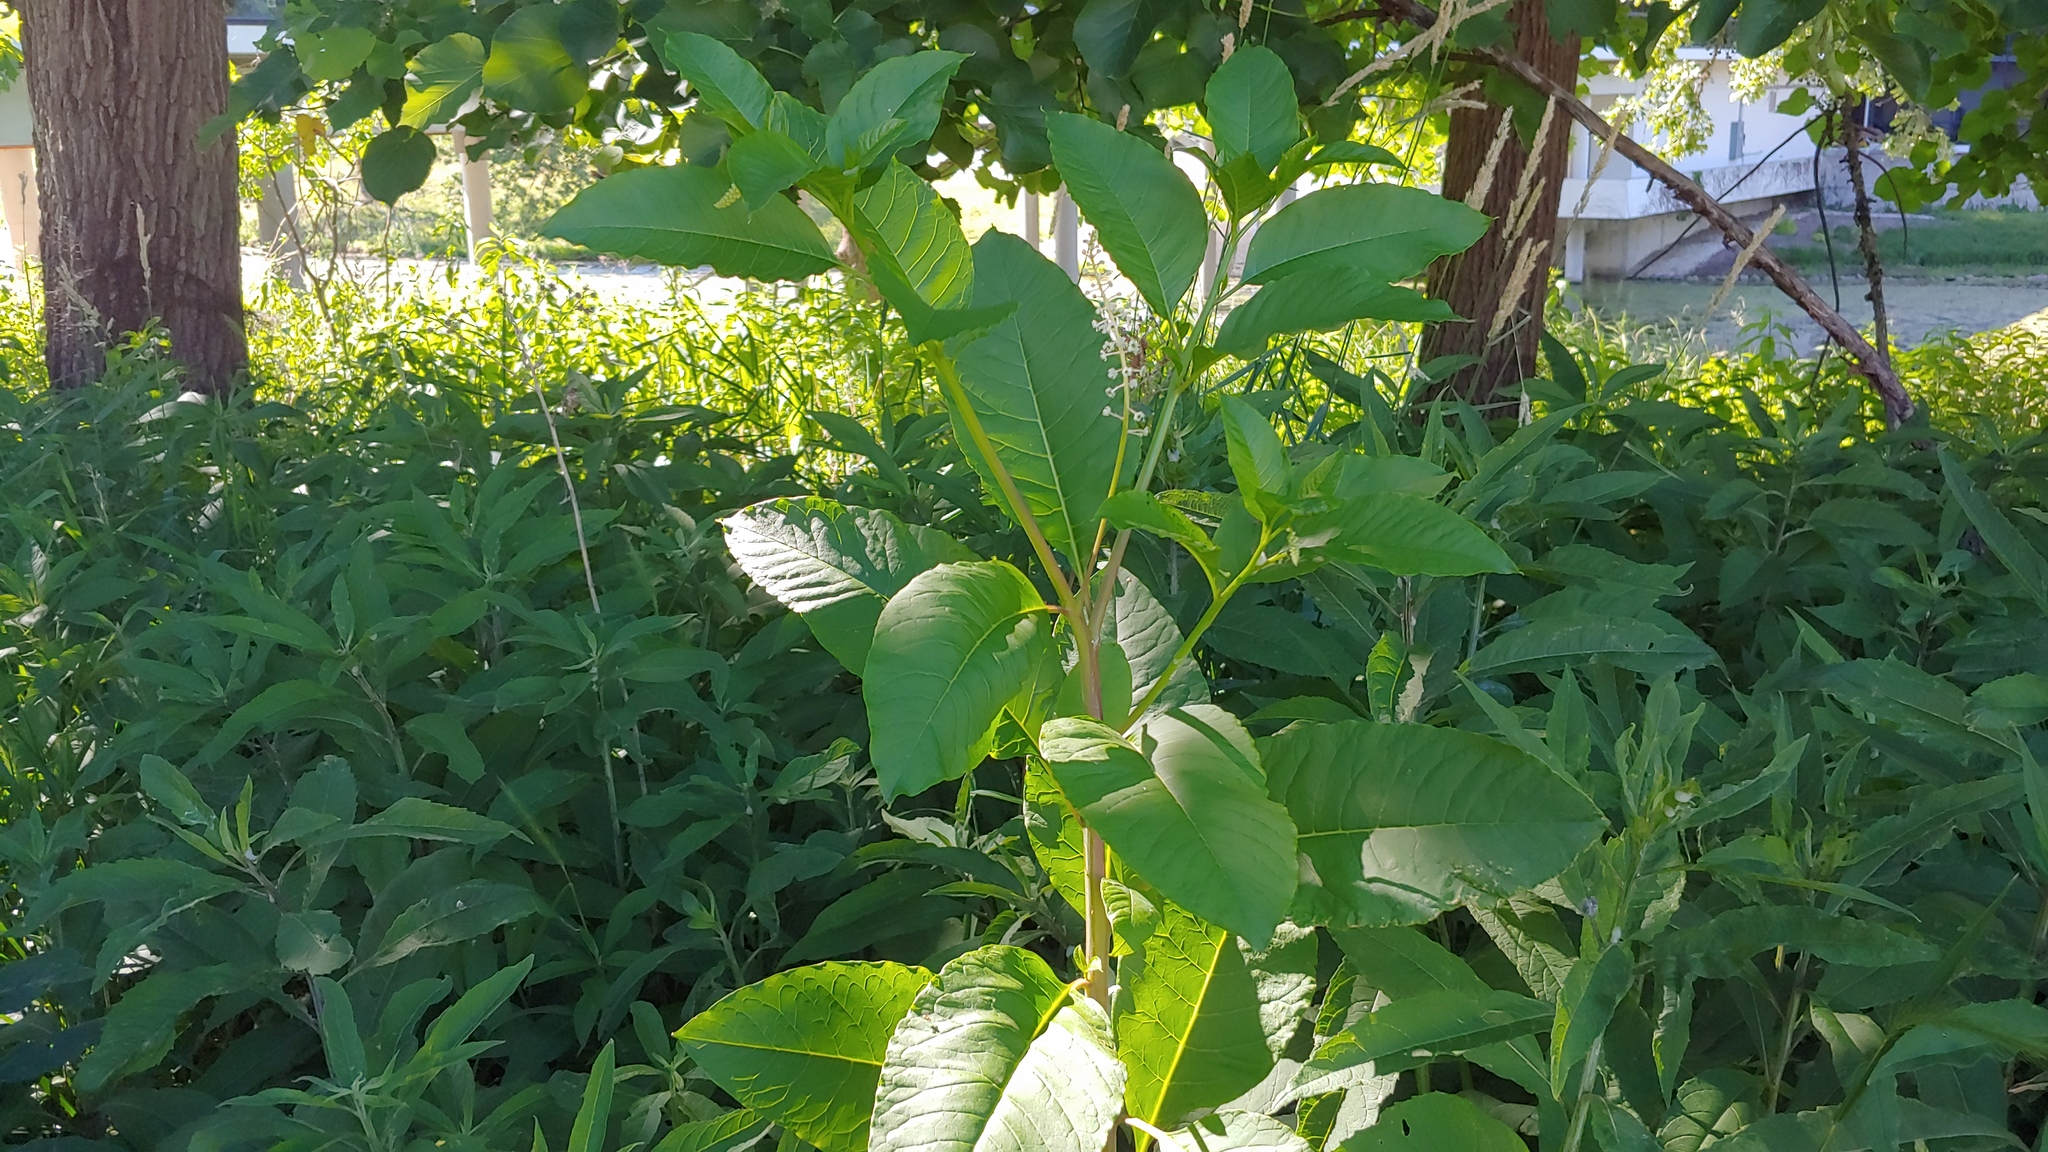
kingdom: Plantae
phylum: Tracheophyta
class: Magnoliopsida
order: Caryophyllales
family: Phytolaccaceae
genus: Phytolacca
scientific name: Phytolacca americana
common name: American pokeweed
